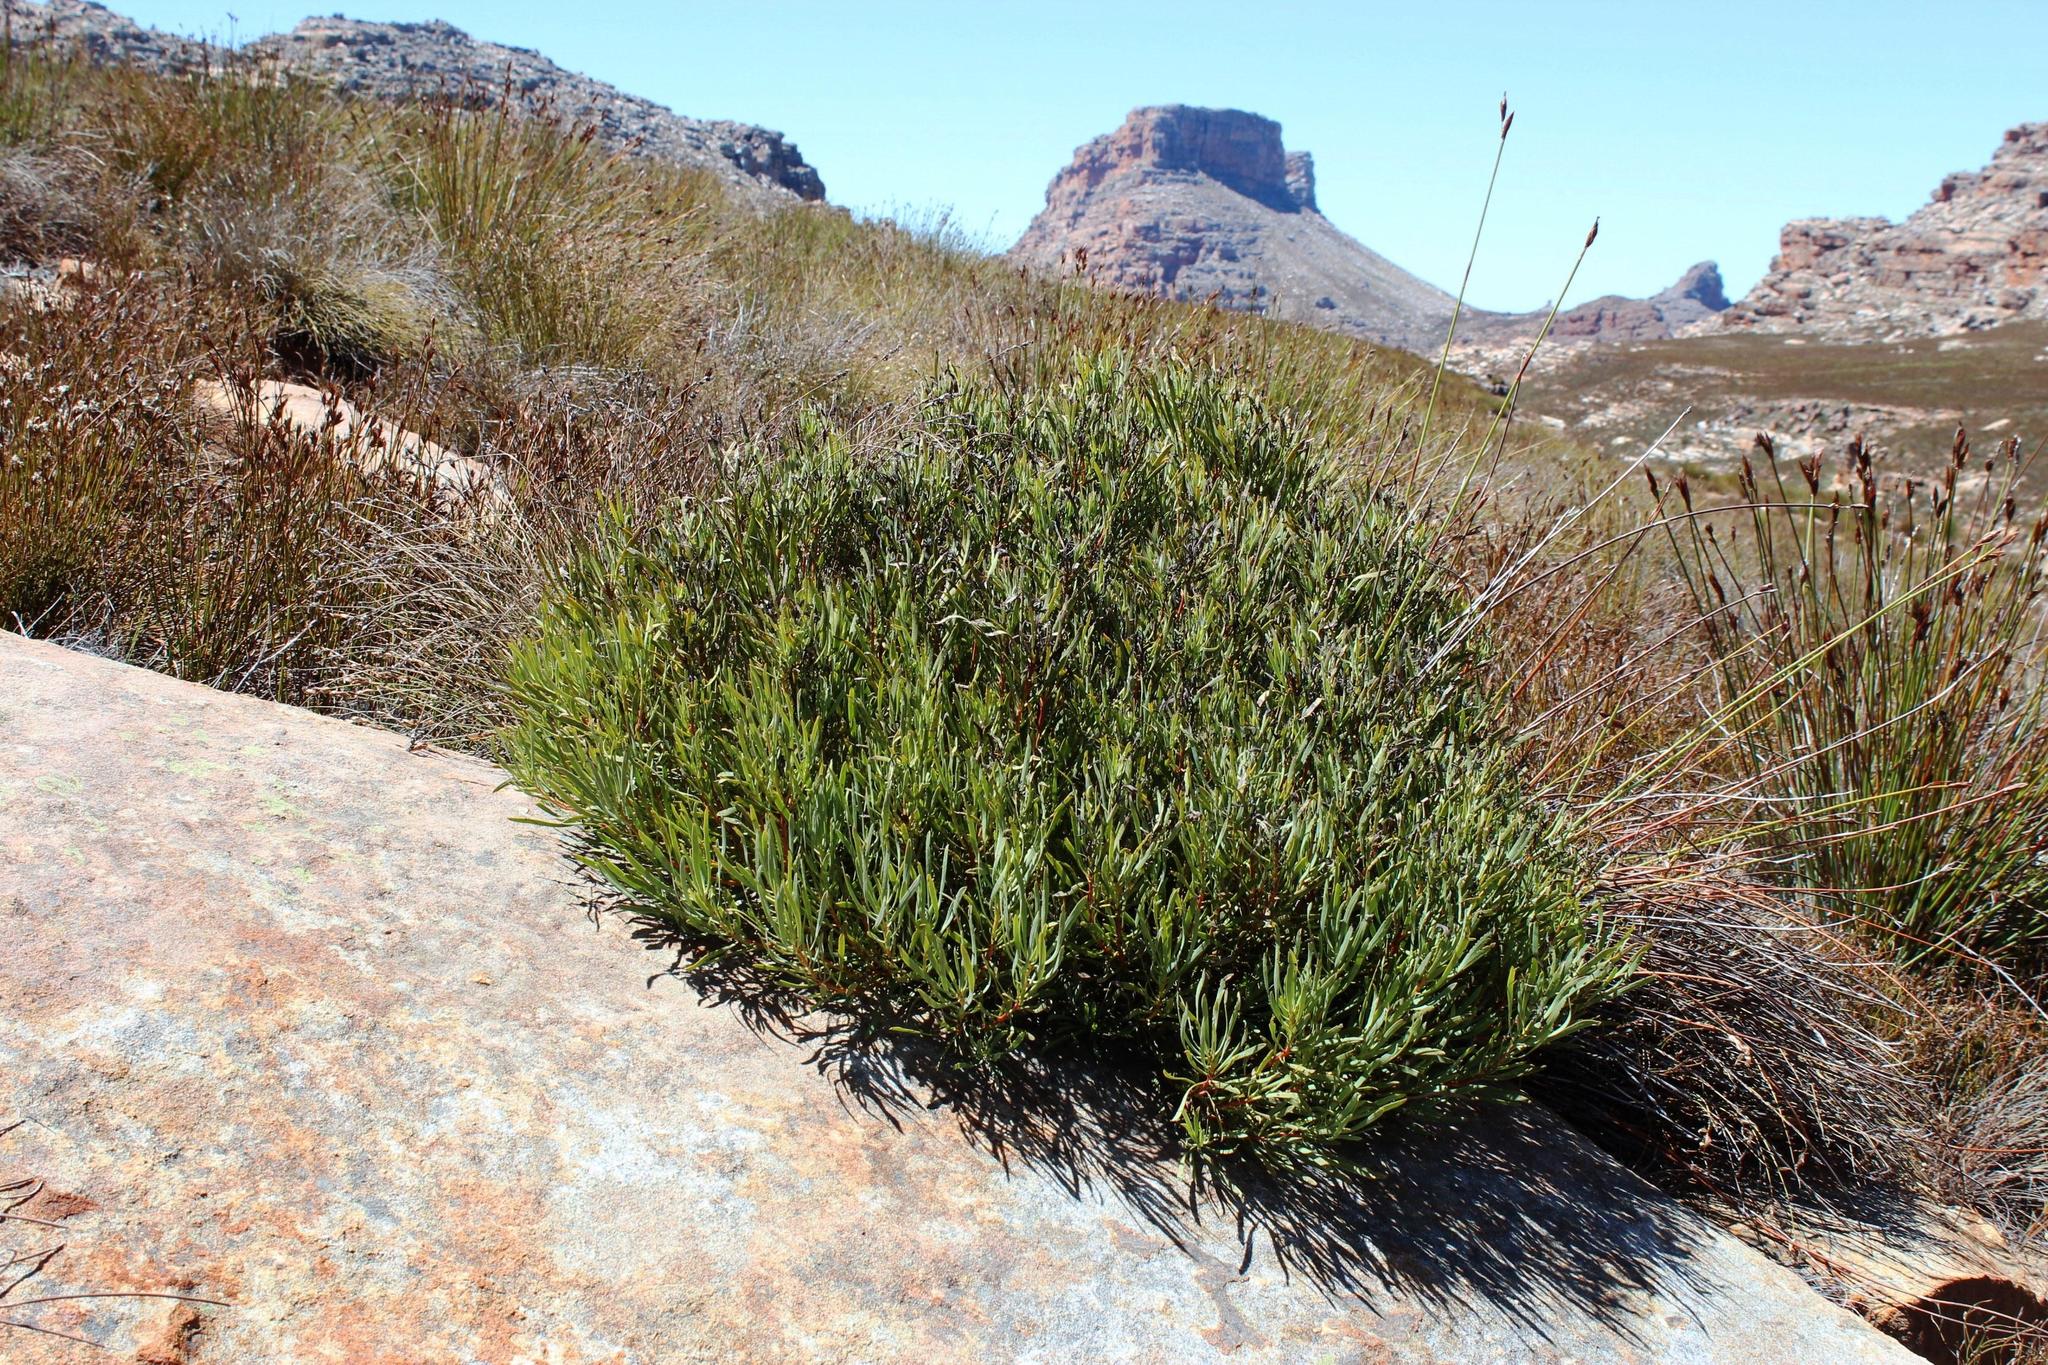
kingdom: Plantae
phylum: Tracheophyta
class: Magnoliopsida
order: Proteales
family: Proteaceae
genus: Protea
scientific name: Protea acuminata
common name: Black-rim sugarbush
